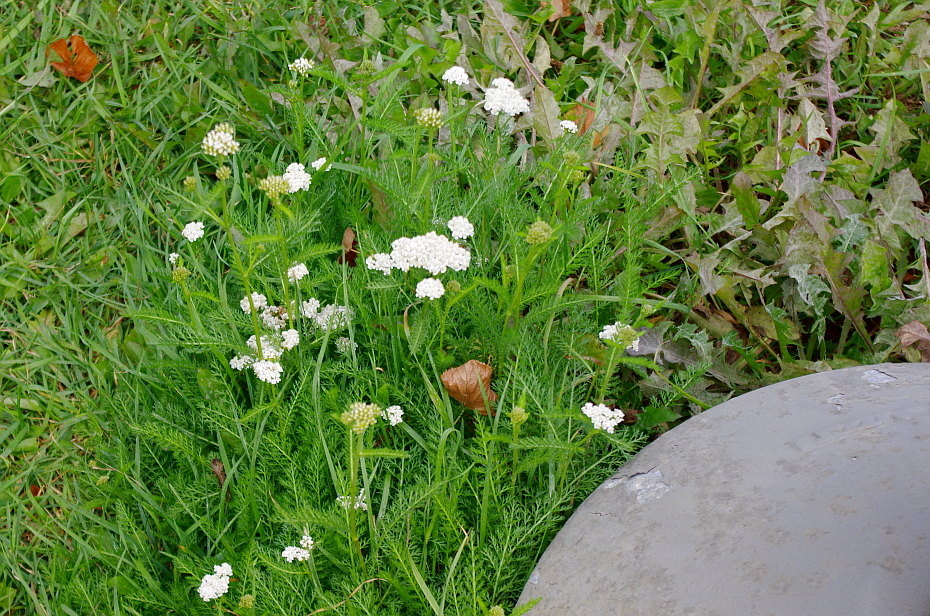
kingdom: Plantae
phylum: Tracheophyta
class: Magnoliopsida
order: Asterales
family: Asteraceae
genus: Achillea
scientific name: Achillea millefolium
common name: Yarrow
